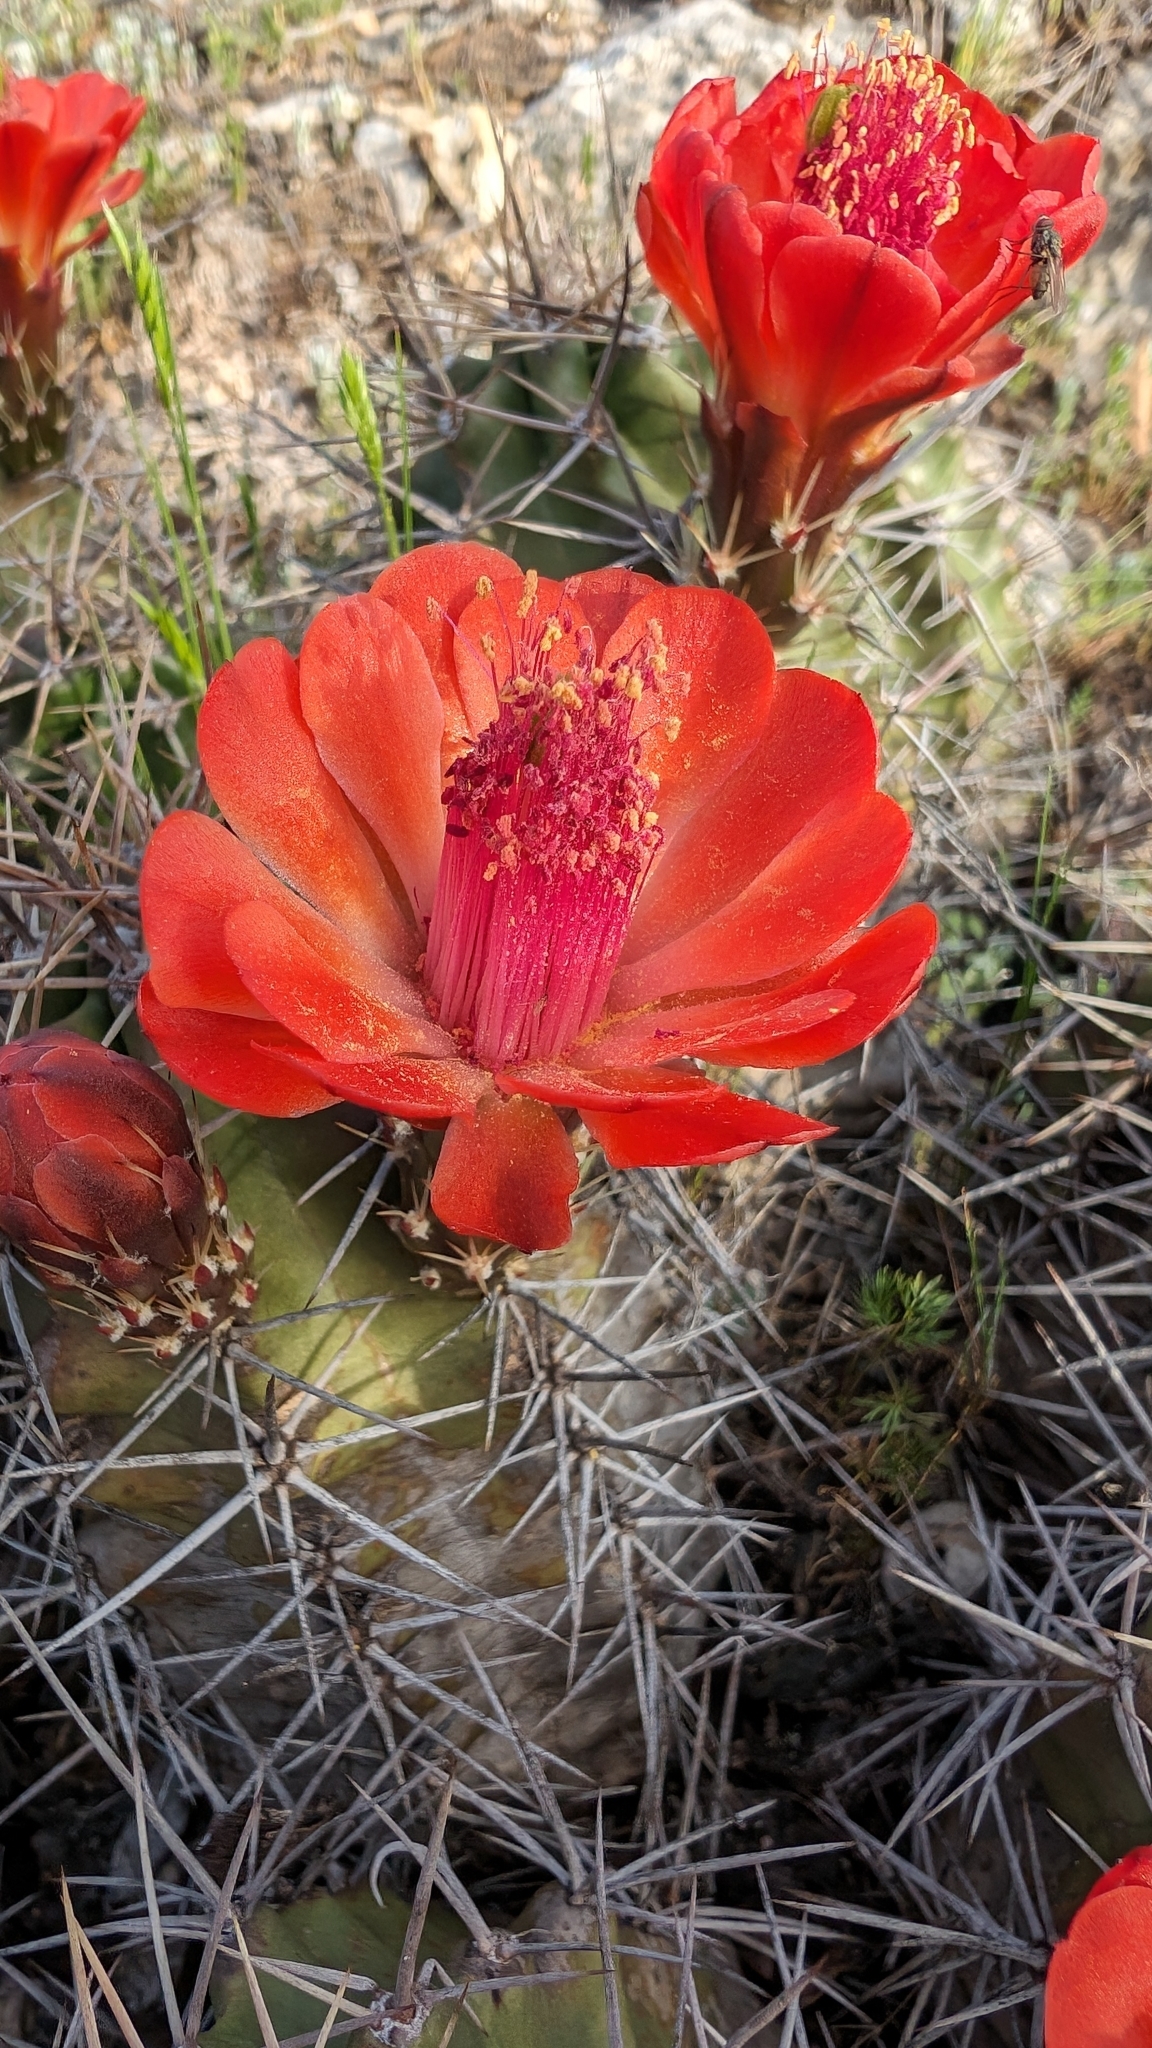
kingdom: Plantae
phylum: Tracheophyta
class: Magnoliopsida
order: Caryophyllales
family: Cactaceae
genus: Echinocereus
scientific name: Echinocereus coccineus
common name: Scarlet hedgehog cactus
